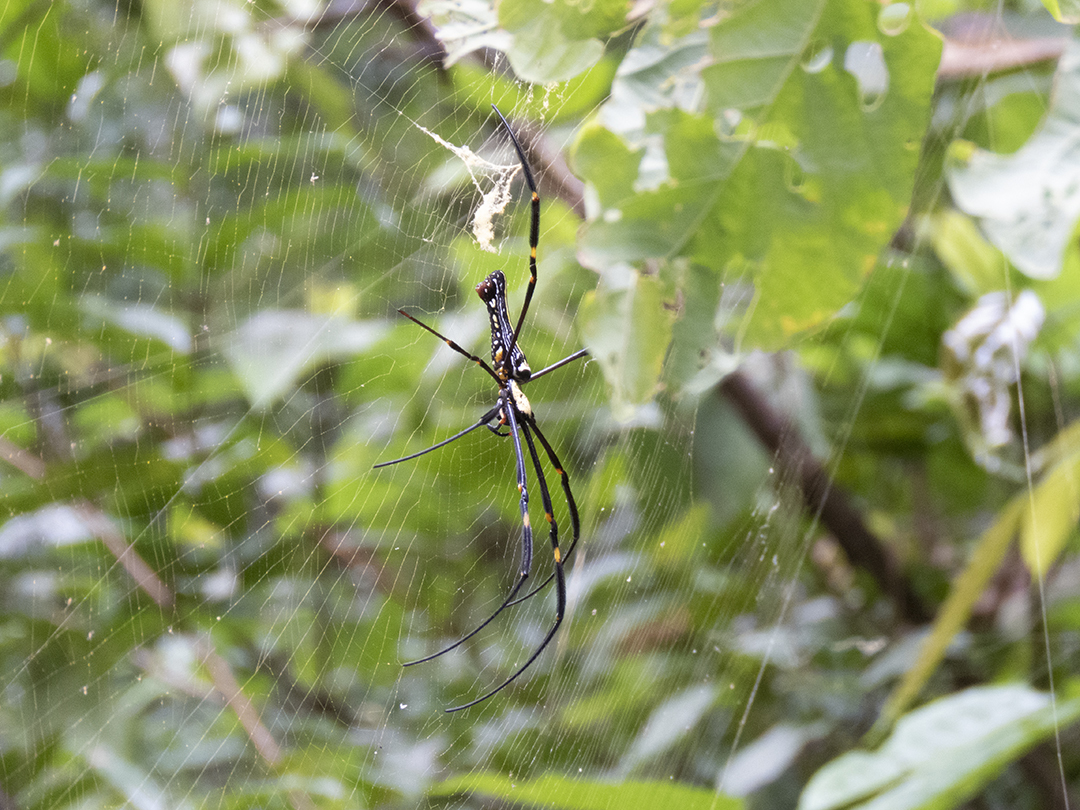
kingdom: Animalia
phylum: Arthropoda
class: Arachnida
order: Araneae
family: Araneidae
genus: Nephila
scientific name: Nephila pilipes
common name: Giant golden orb weaver
